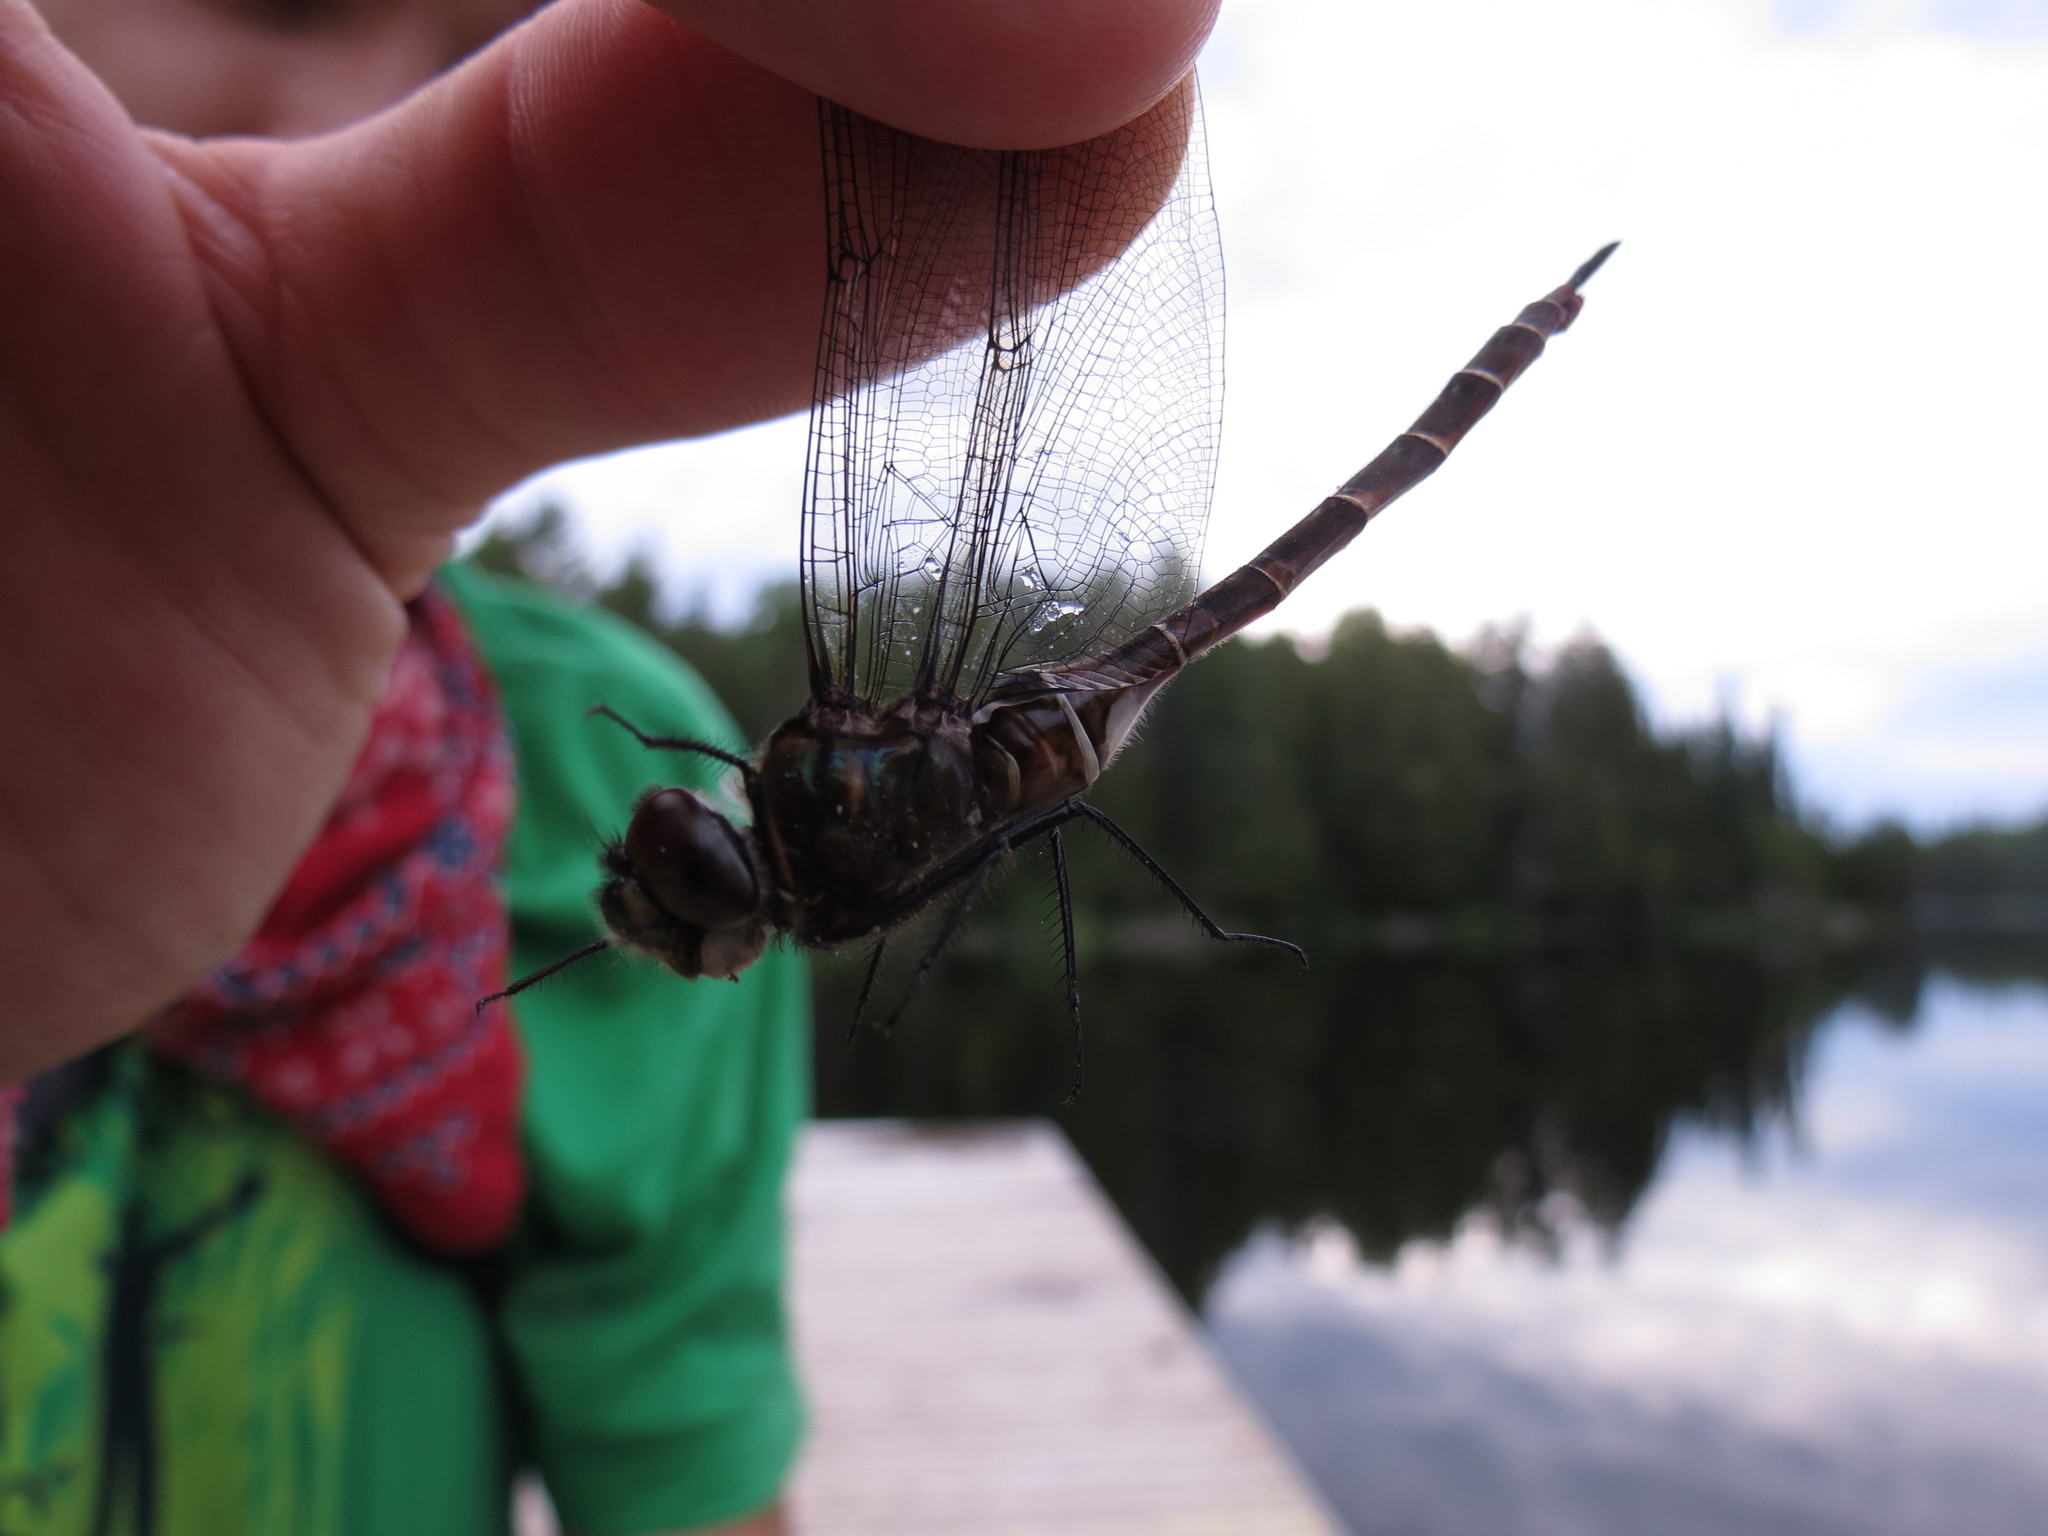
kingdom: Animalia
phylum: Arthropoda
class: Insecta
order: Odonata
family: Corduliidae
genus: Somatochlora
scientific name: Somatochlora cingulata
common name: Lake emerald
